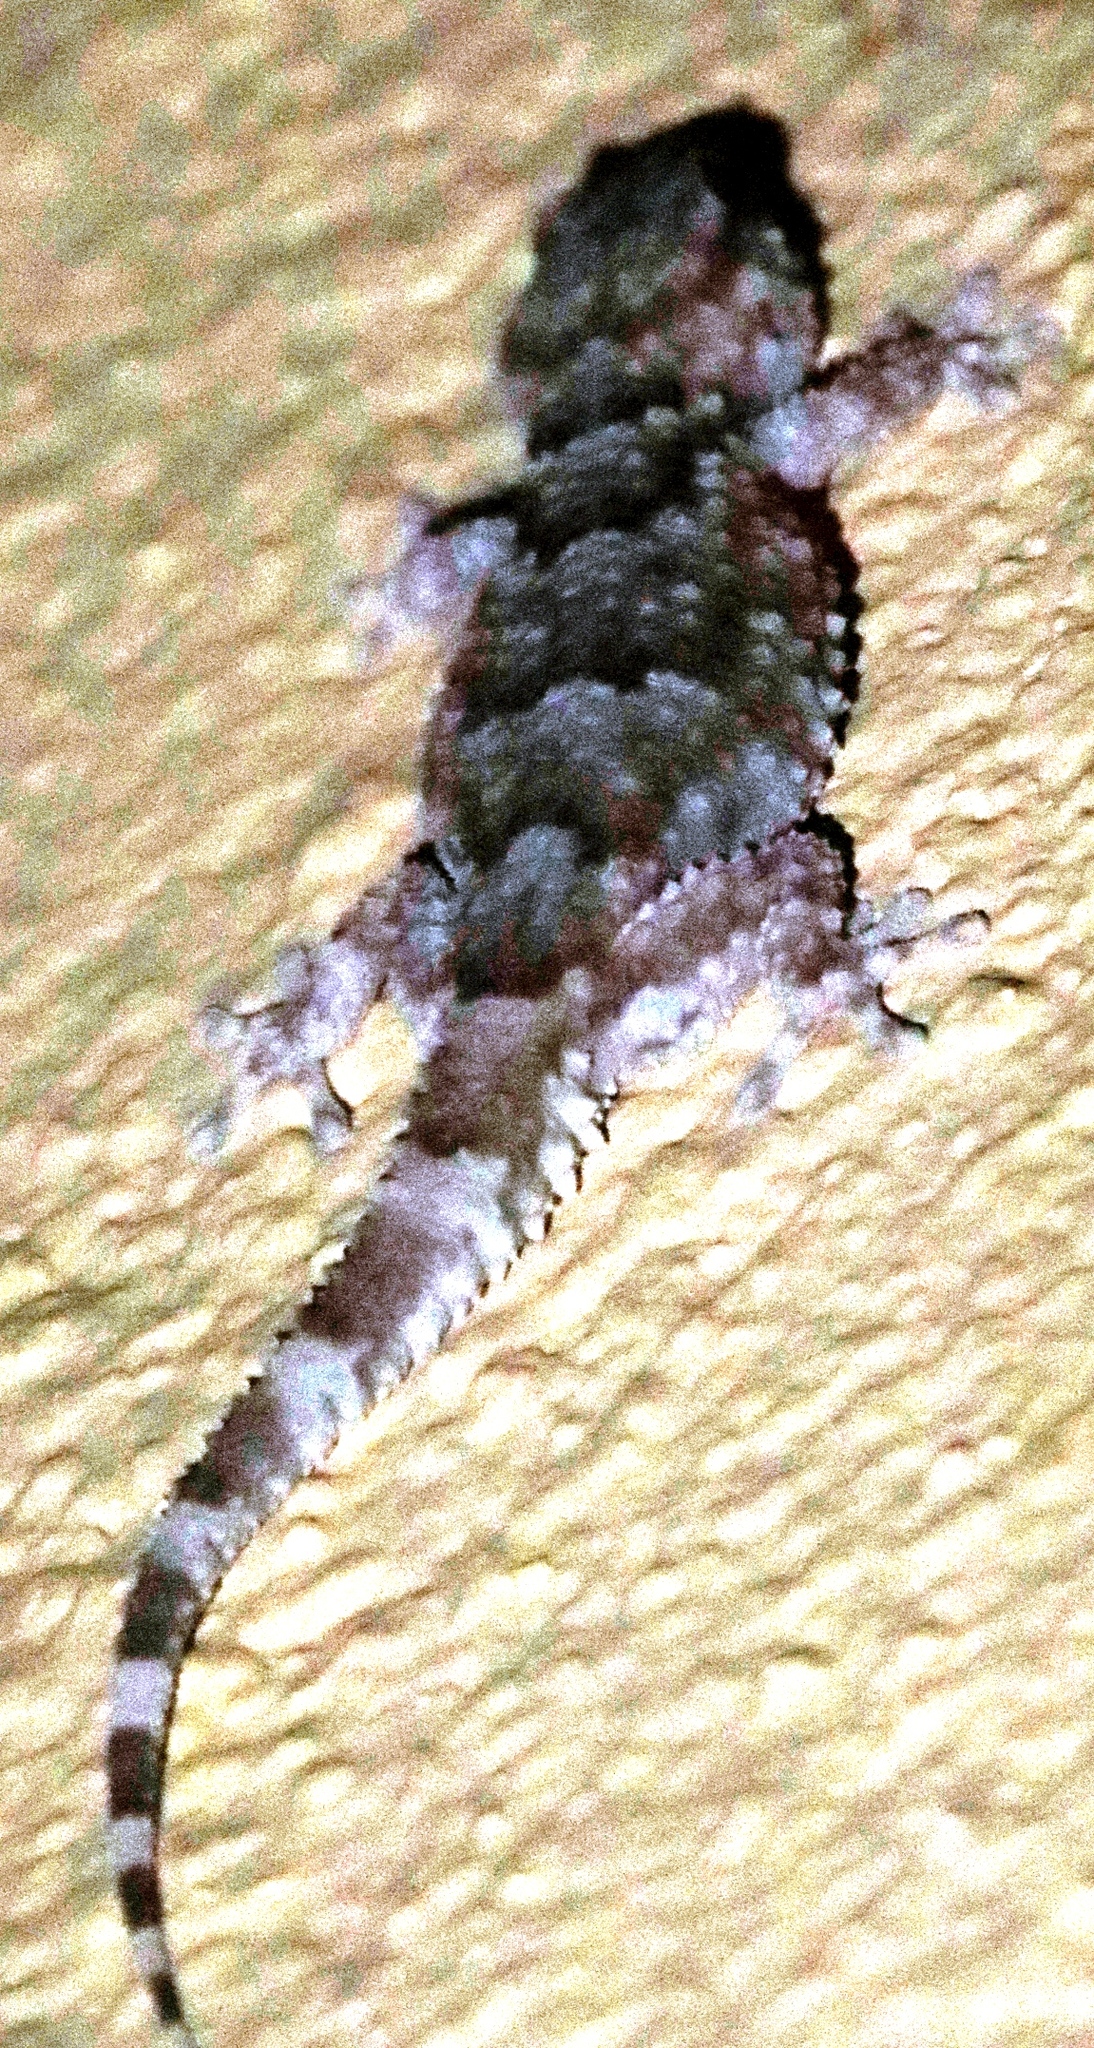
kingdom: Animalia
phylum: Chordata
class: Squamata
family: Gekkonidae
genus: Chondrodactylus
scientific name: Chondrodactylus bibronii
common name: Bibron's gecko
